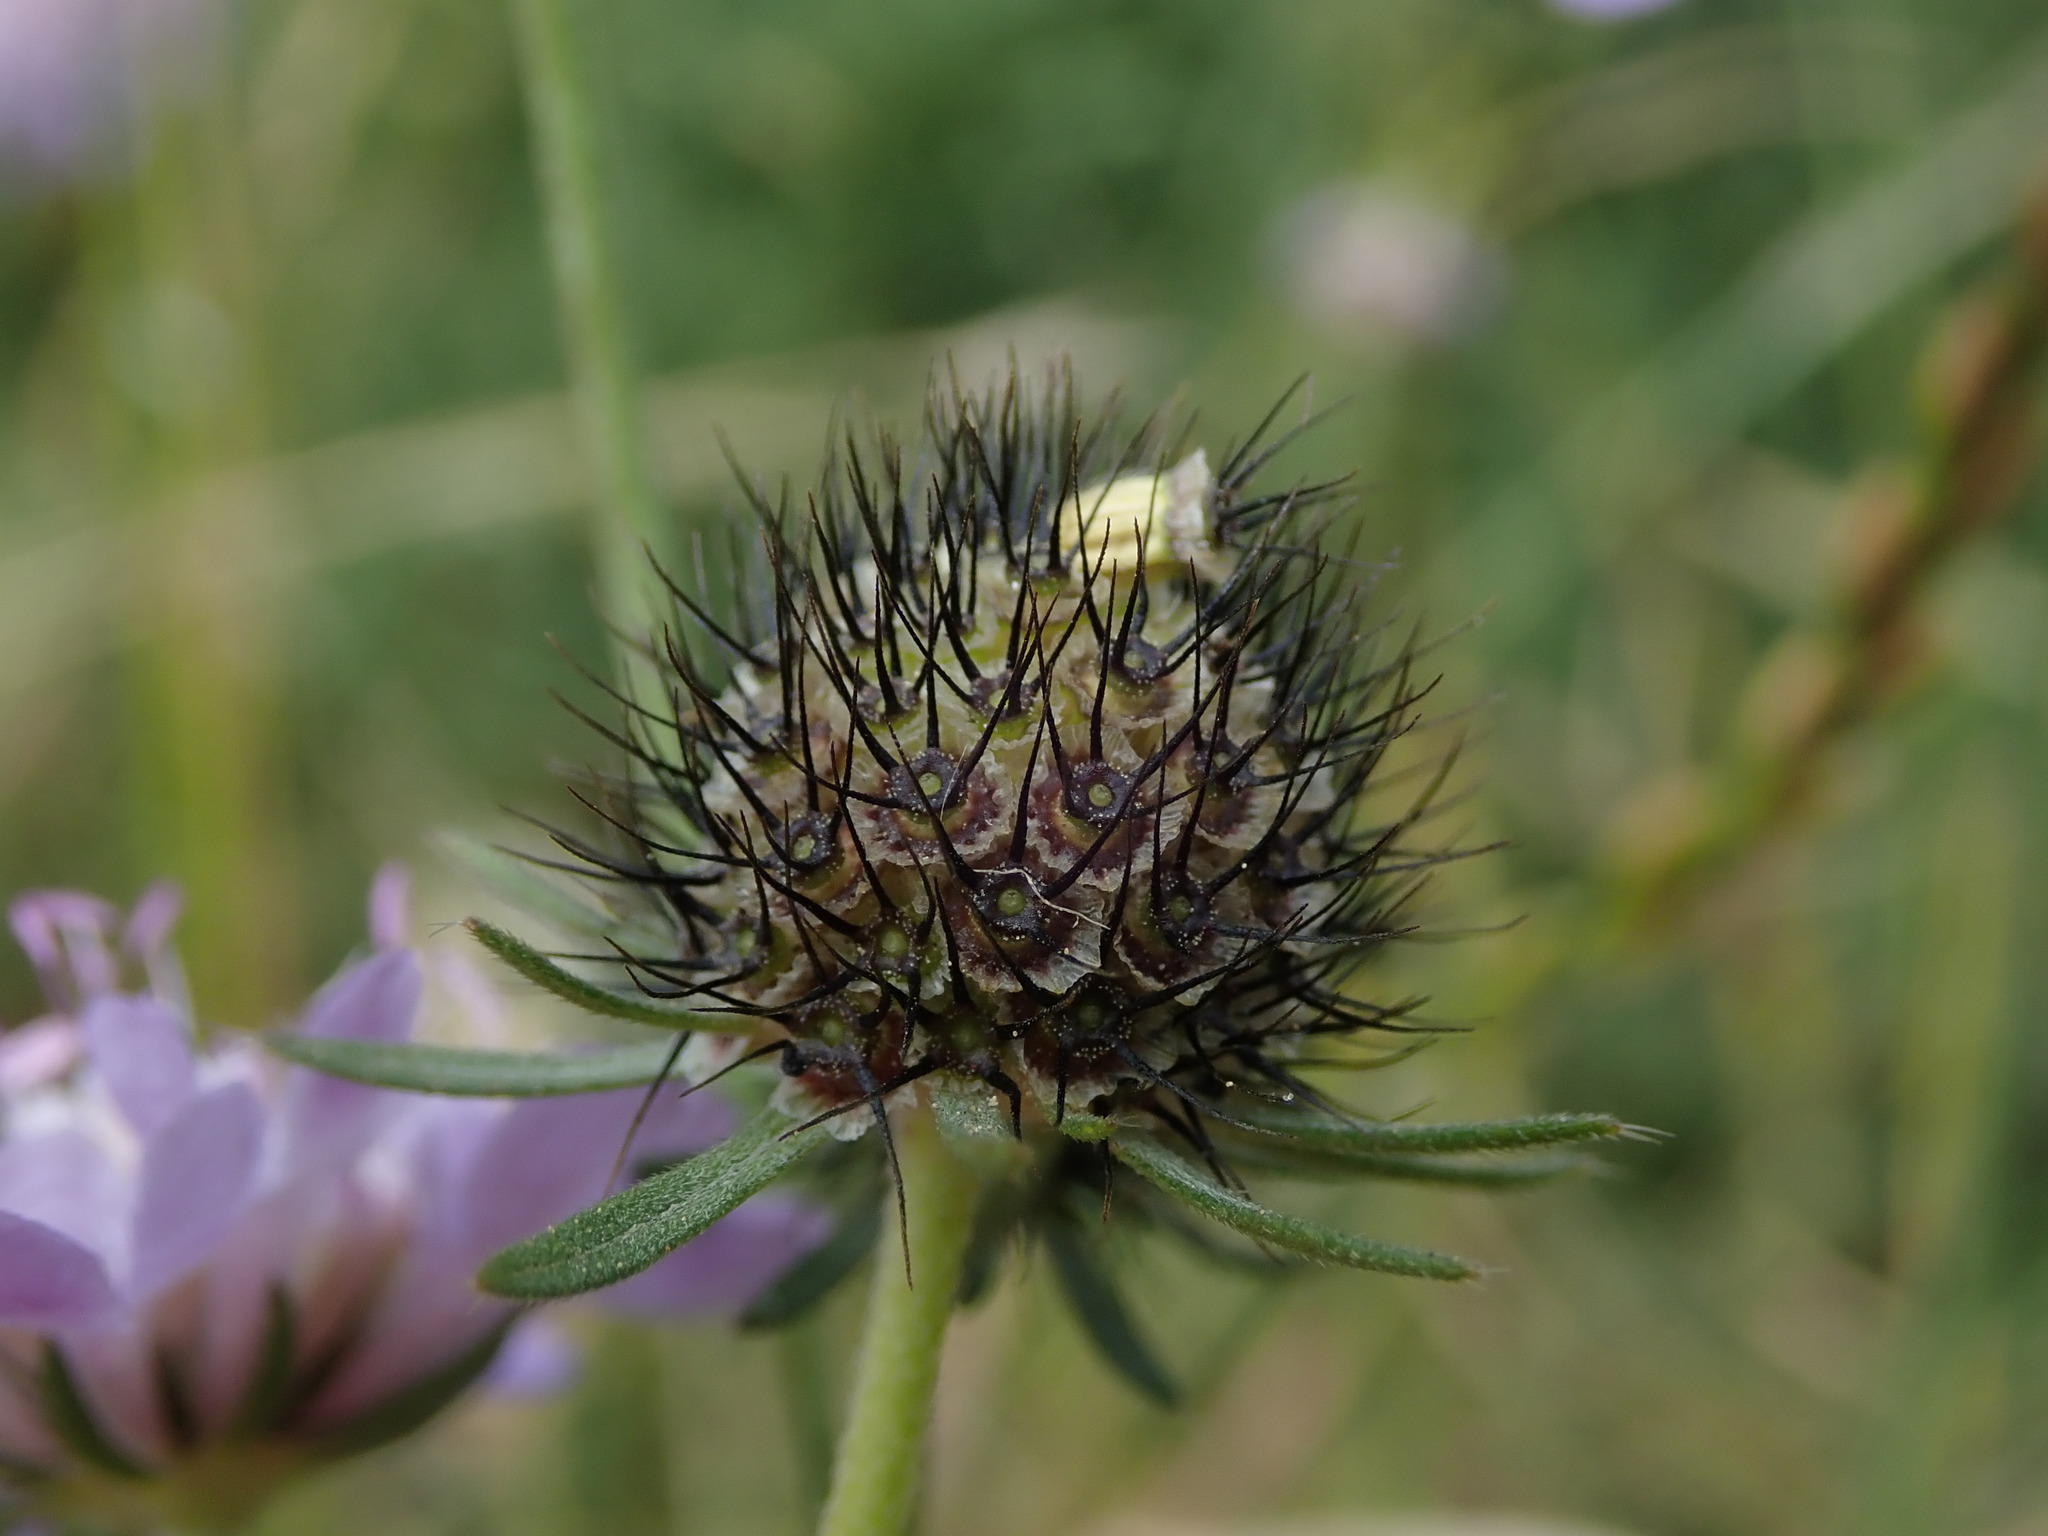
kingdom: Plantae
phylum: Tracheophyta
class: Magnoliopsida
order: Dipsacales
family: Caprifoliaceae
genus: Scabiosa
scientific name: Scabiosa columbaria
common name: Small scabious
